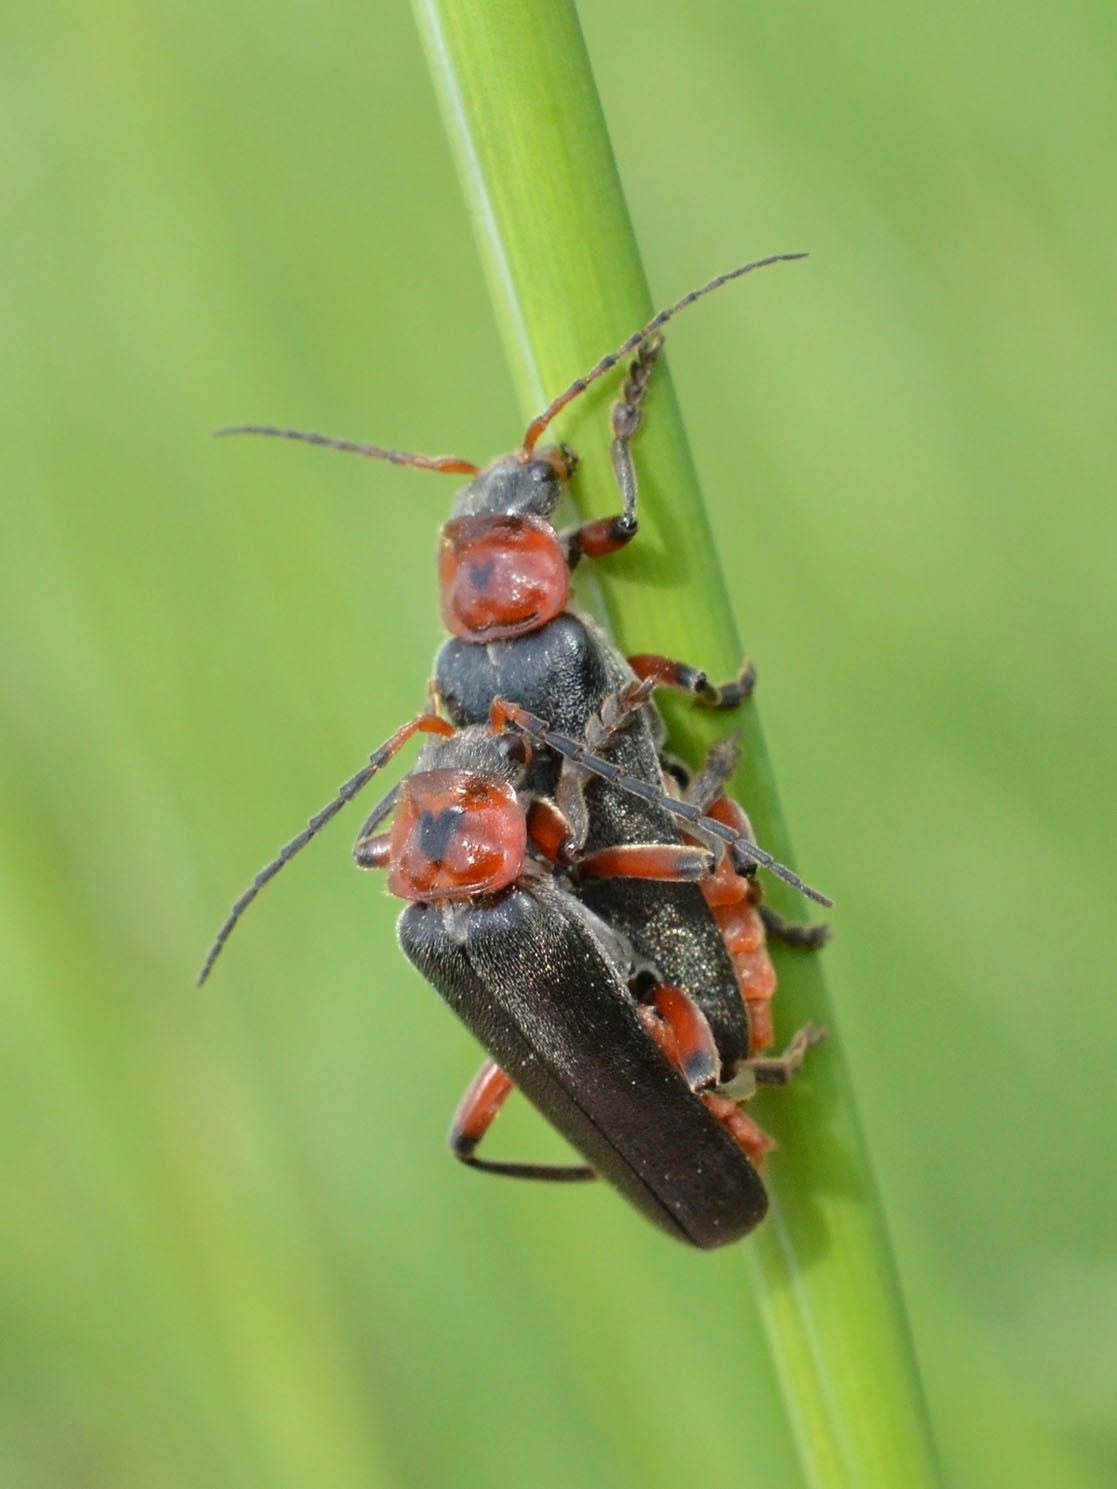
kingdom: Animalia
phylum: Arthropoda
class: Insecta
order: Coleoptera
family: Cantharidae
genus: Cantharis
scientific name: Cantharis rustica
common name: Soldier beetle
